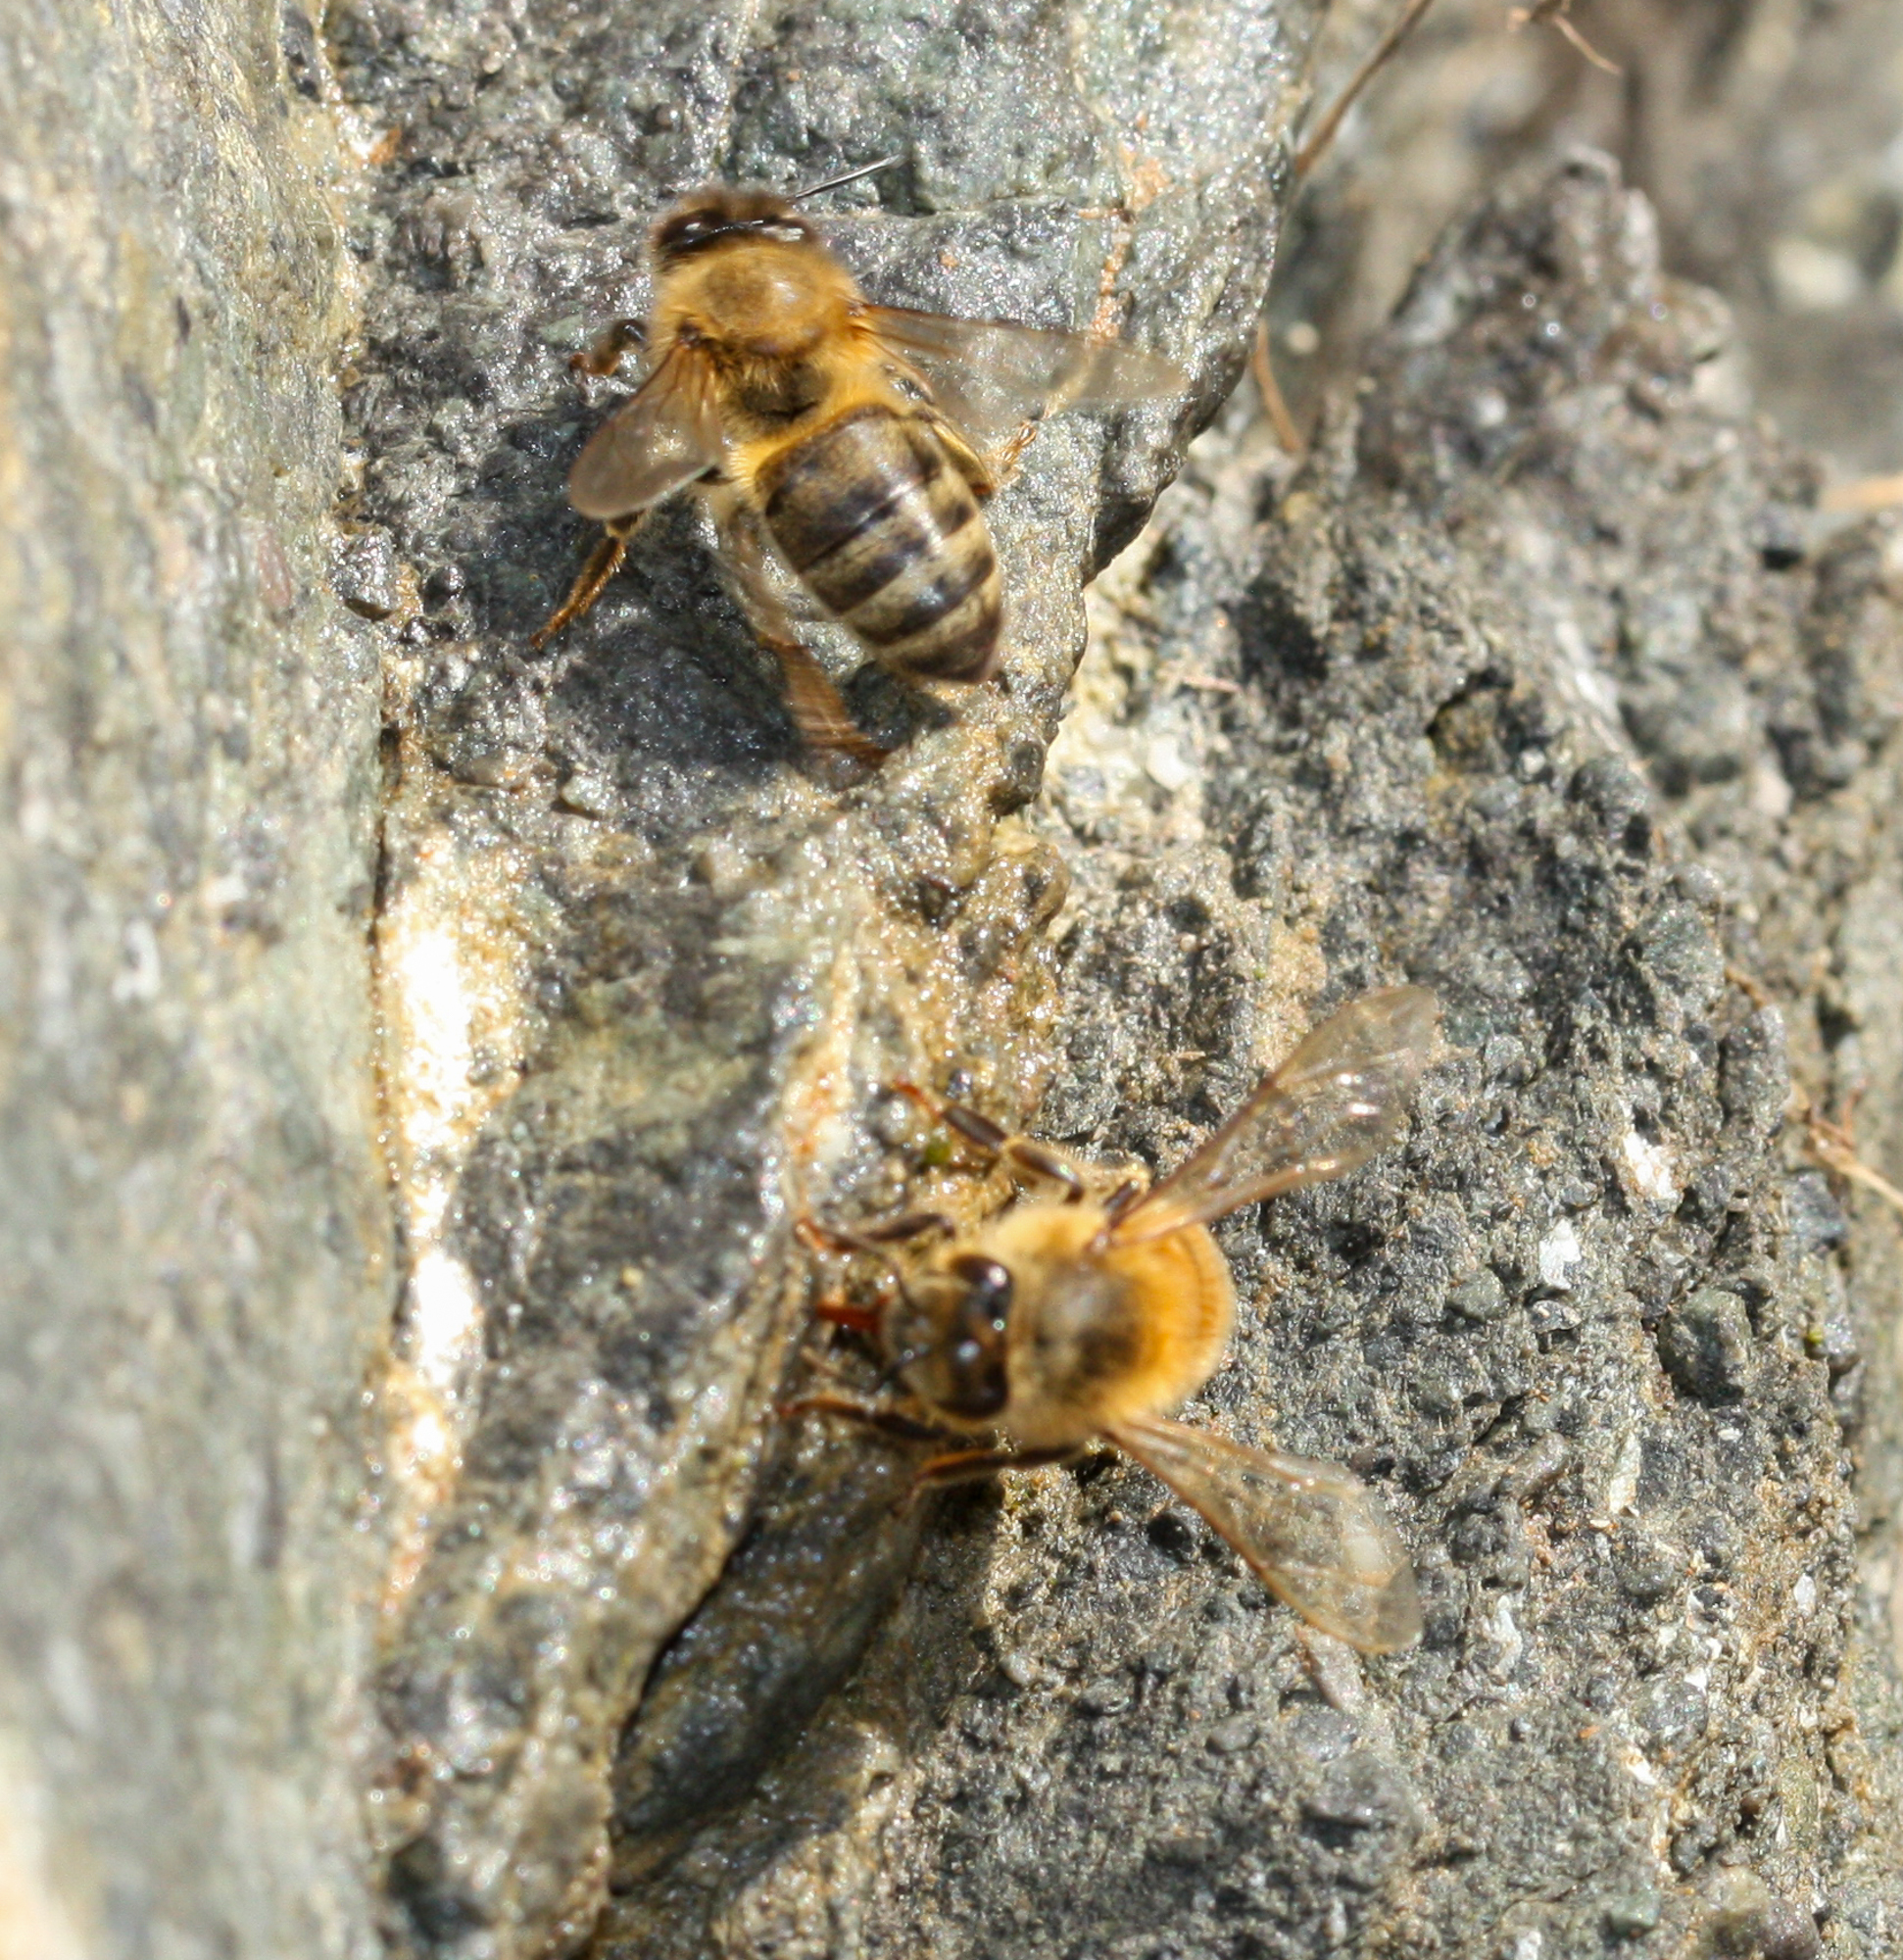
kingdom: Animalia
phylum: Arthropoda
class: Insecta
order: Hymenoptera
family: Apidae
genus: Apis
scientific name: Apis mellifera
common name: Honey bee
